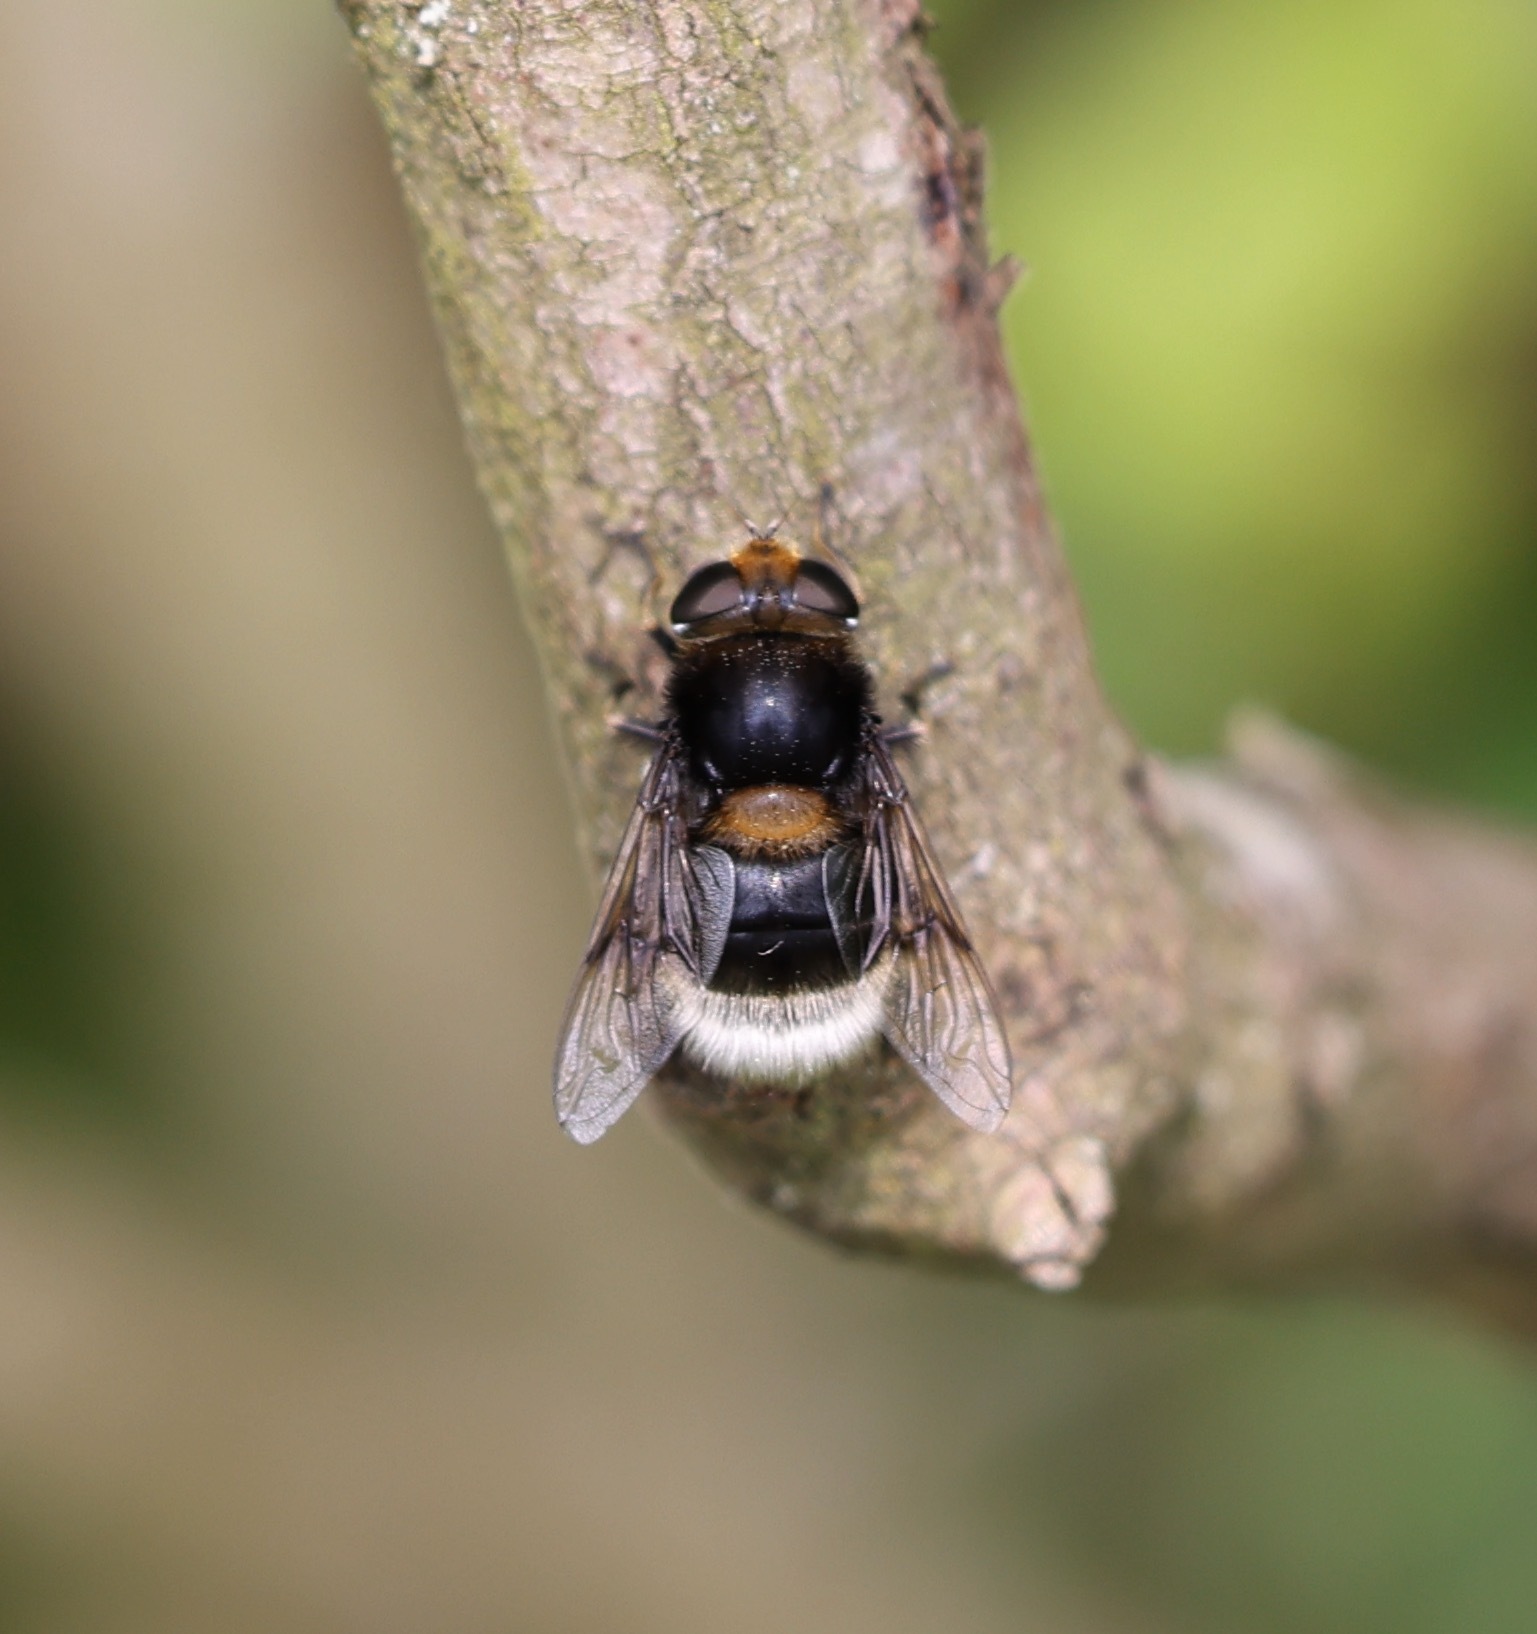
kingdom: Animalia
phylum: Arthropoda
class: Insecta
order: Diptera
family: Syrphidae
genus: Eristalis
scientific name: Eristalis intricaria
